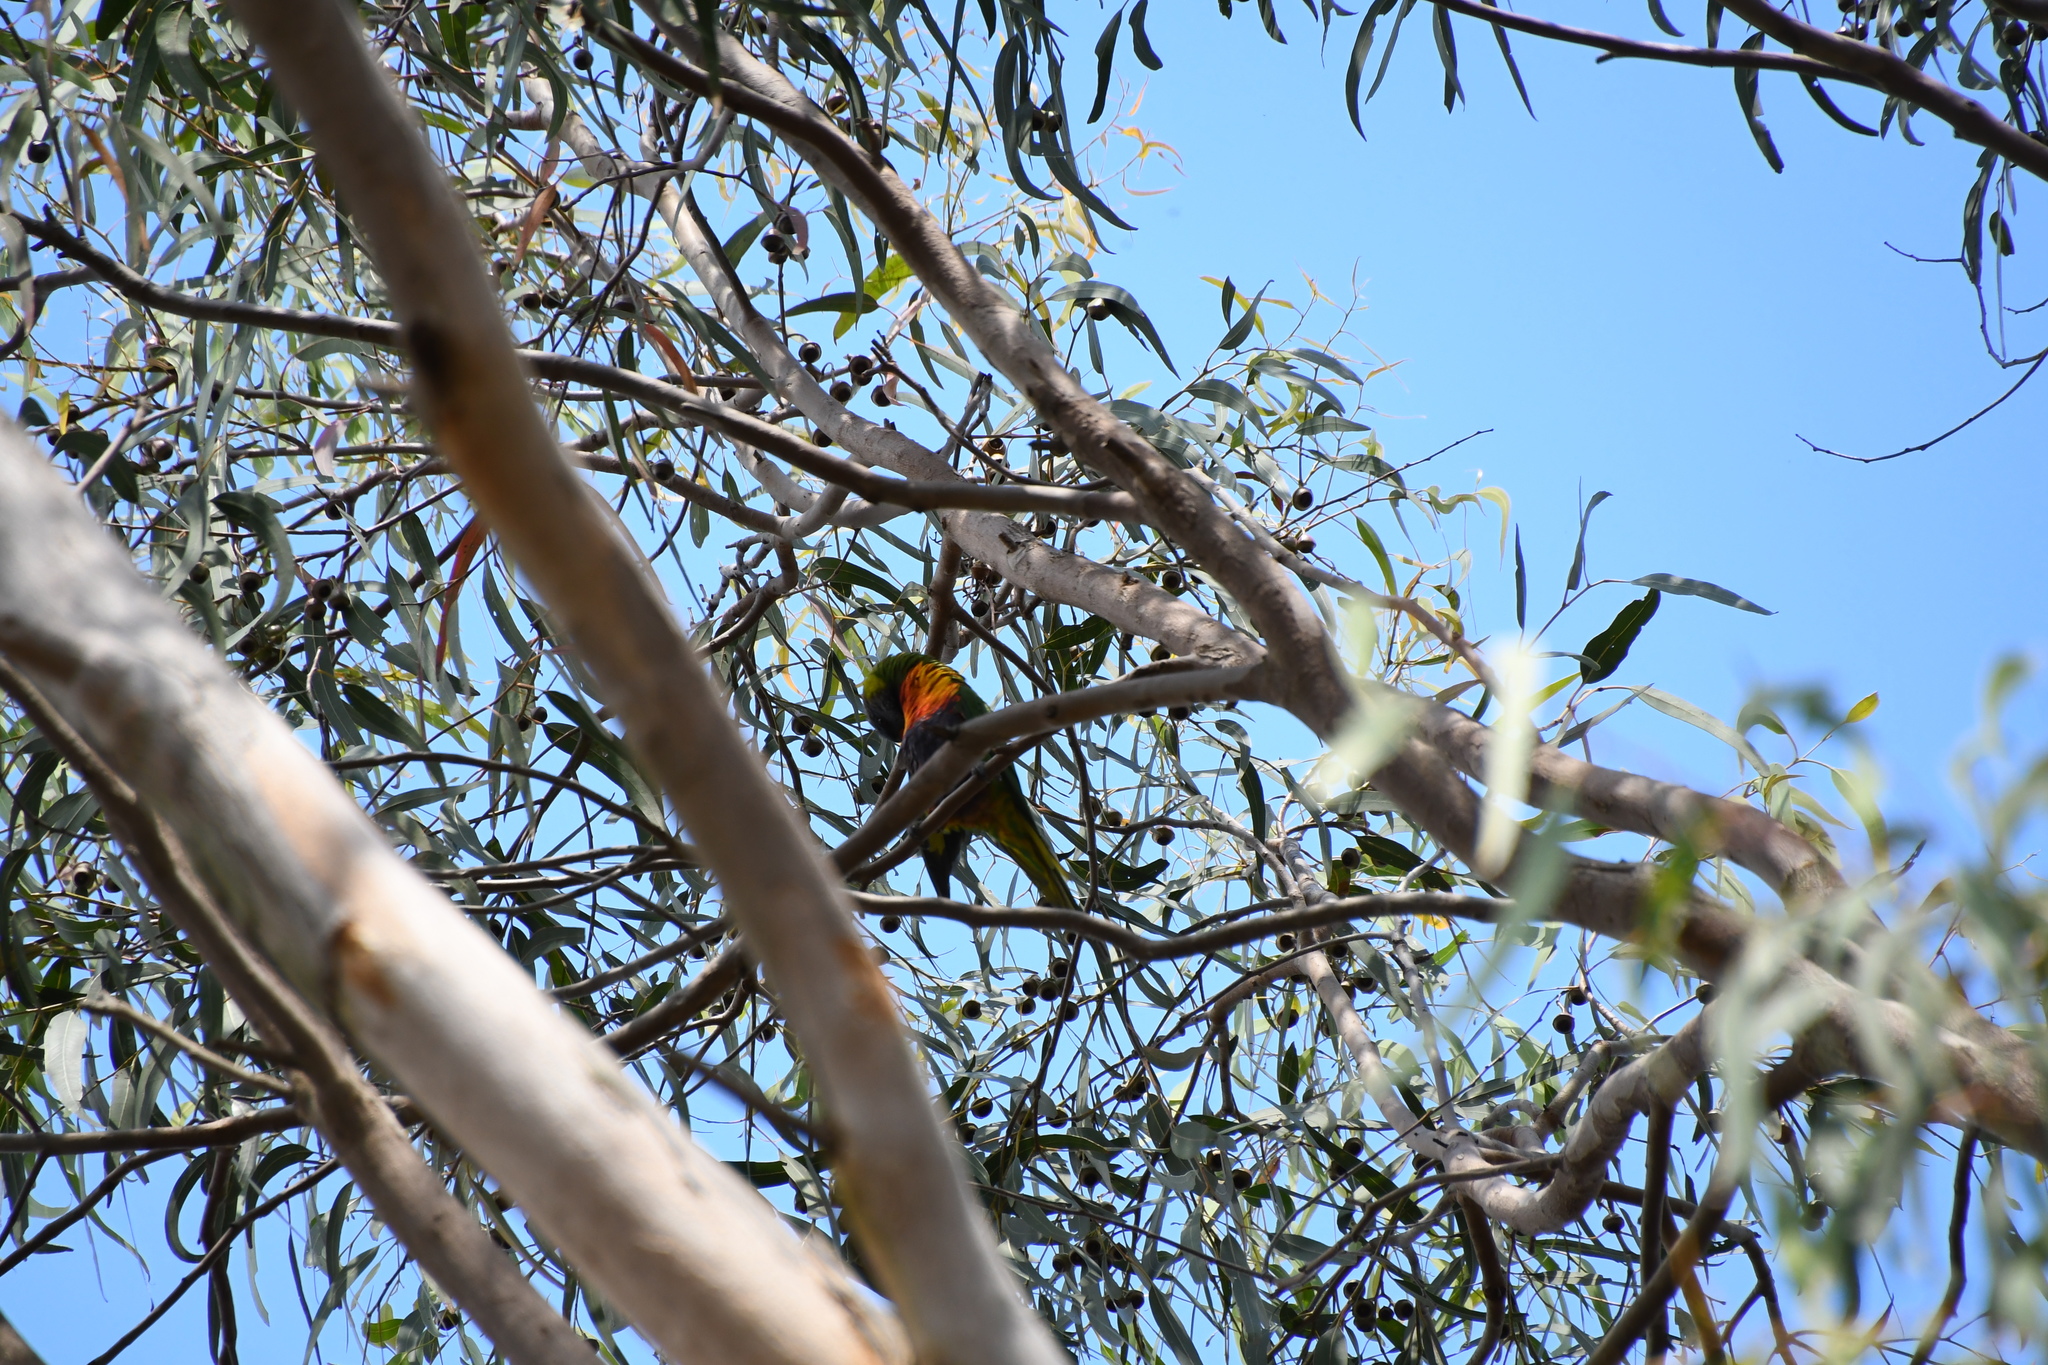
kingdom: Animalia
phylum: Chordata
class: Aves
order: Psittaciformes
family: Psittacidae
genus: Trichoglossus
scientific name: Trichoglossus haematodus
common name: Coconut lorikeet
